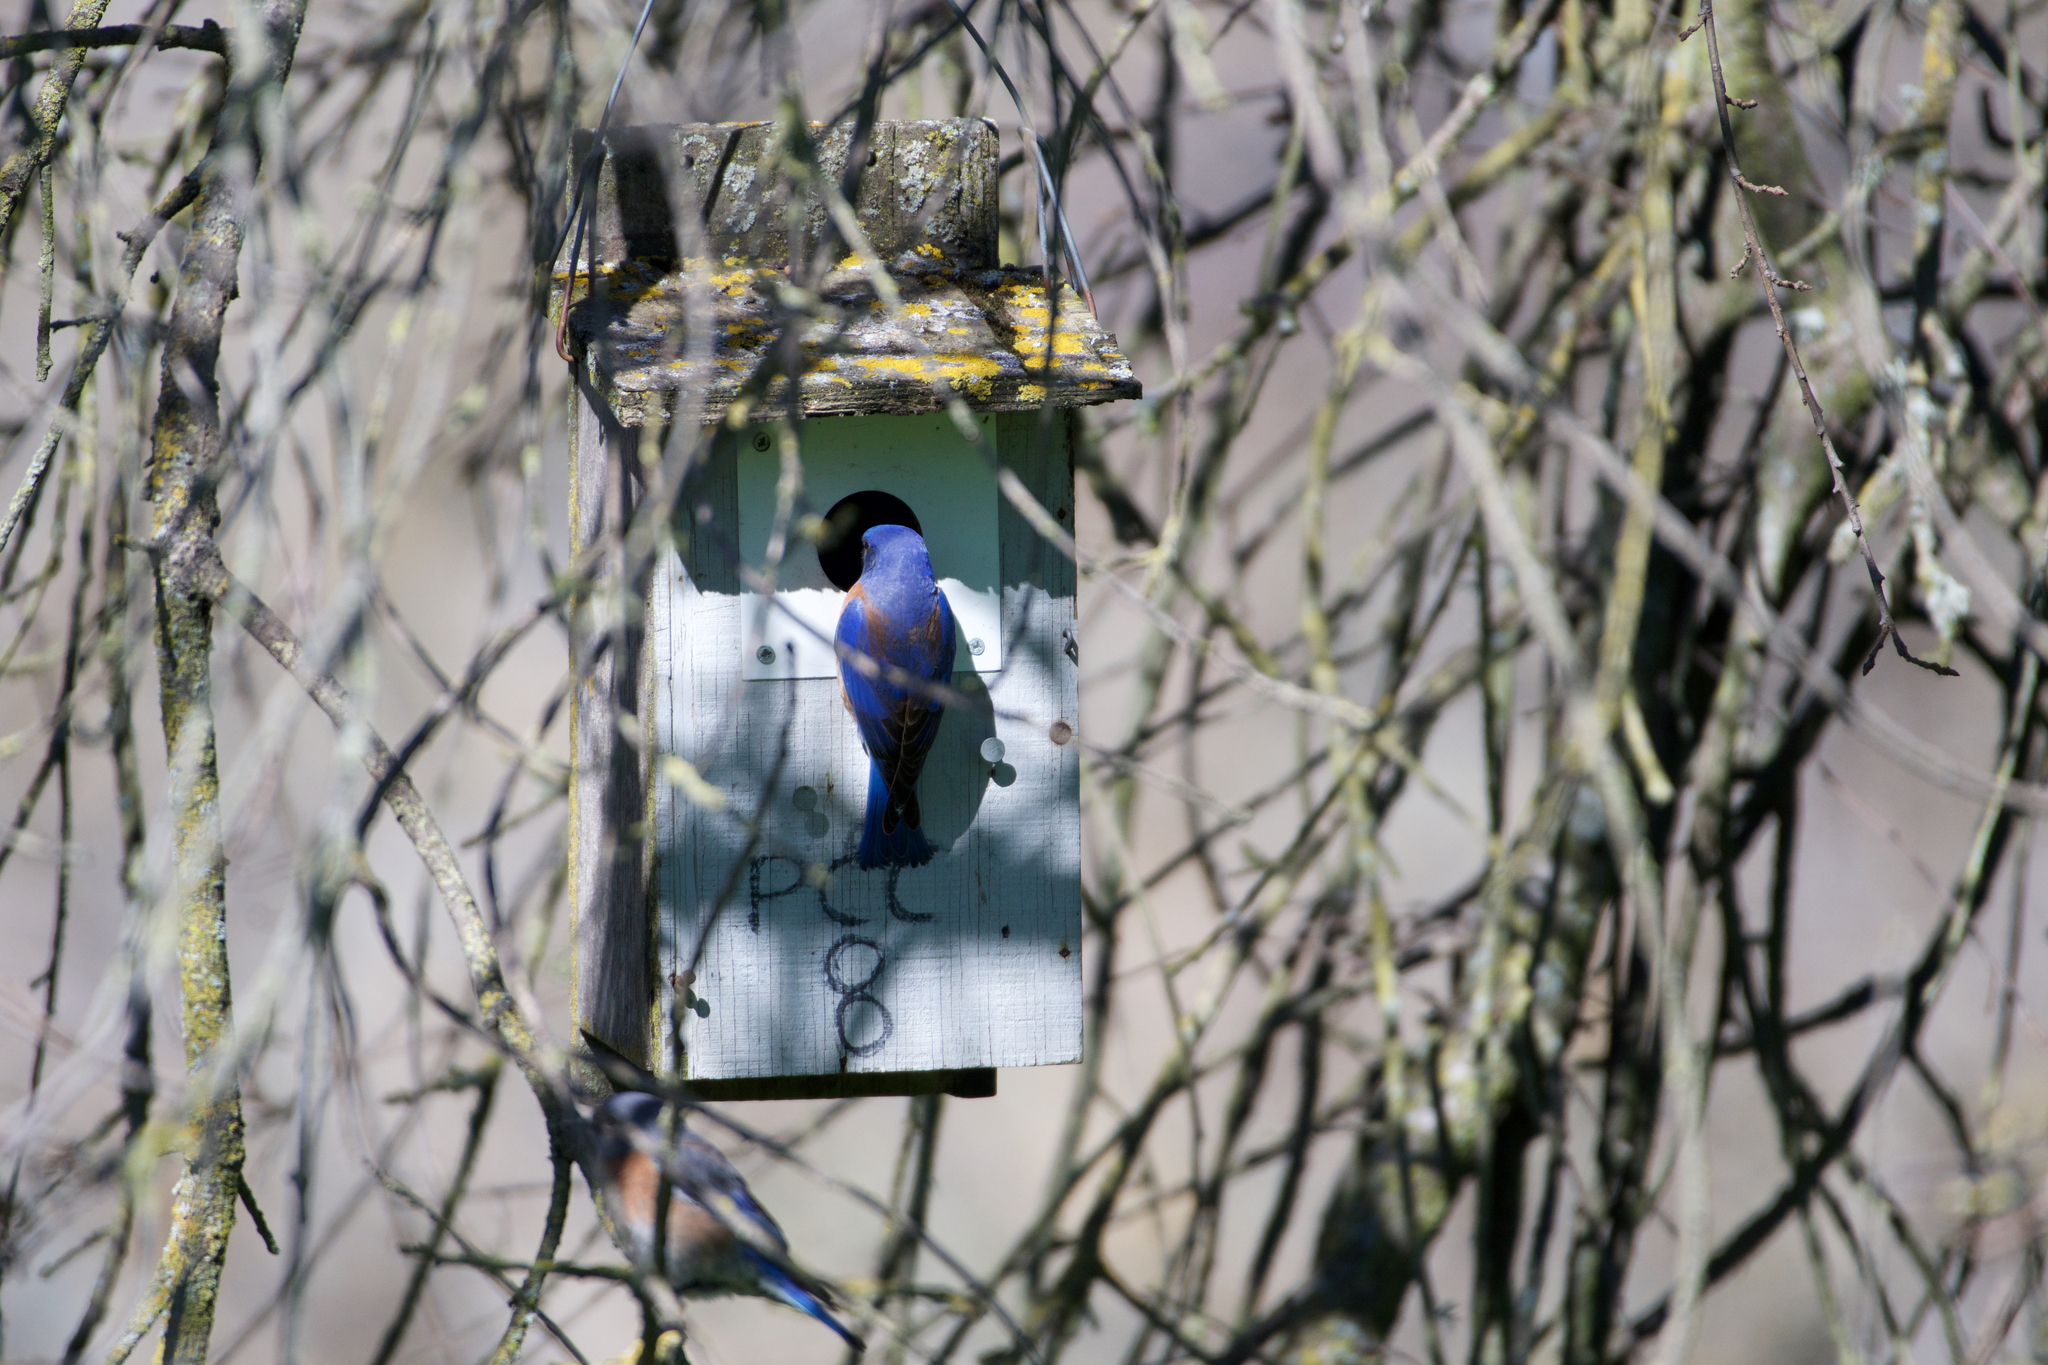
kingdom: Animalia
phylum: Chordata
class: Aves
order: Passeriformes
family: Turdidae
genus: Sialia
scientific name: Sialia mexicana
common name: Western bluebird
